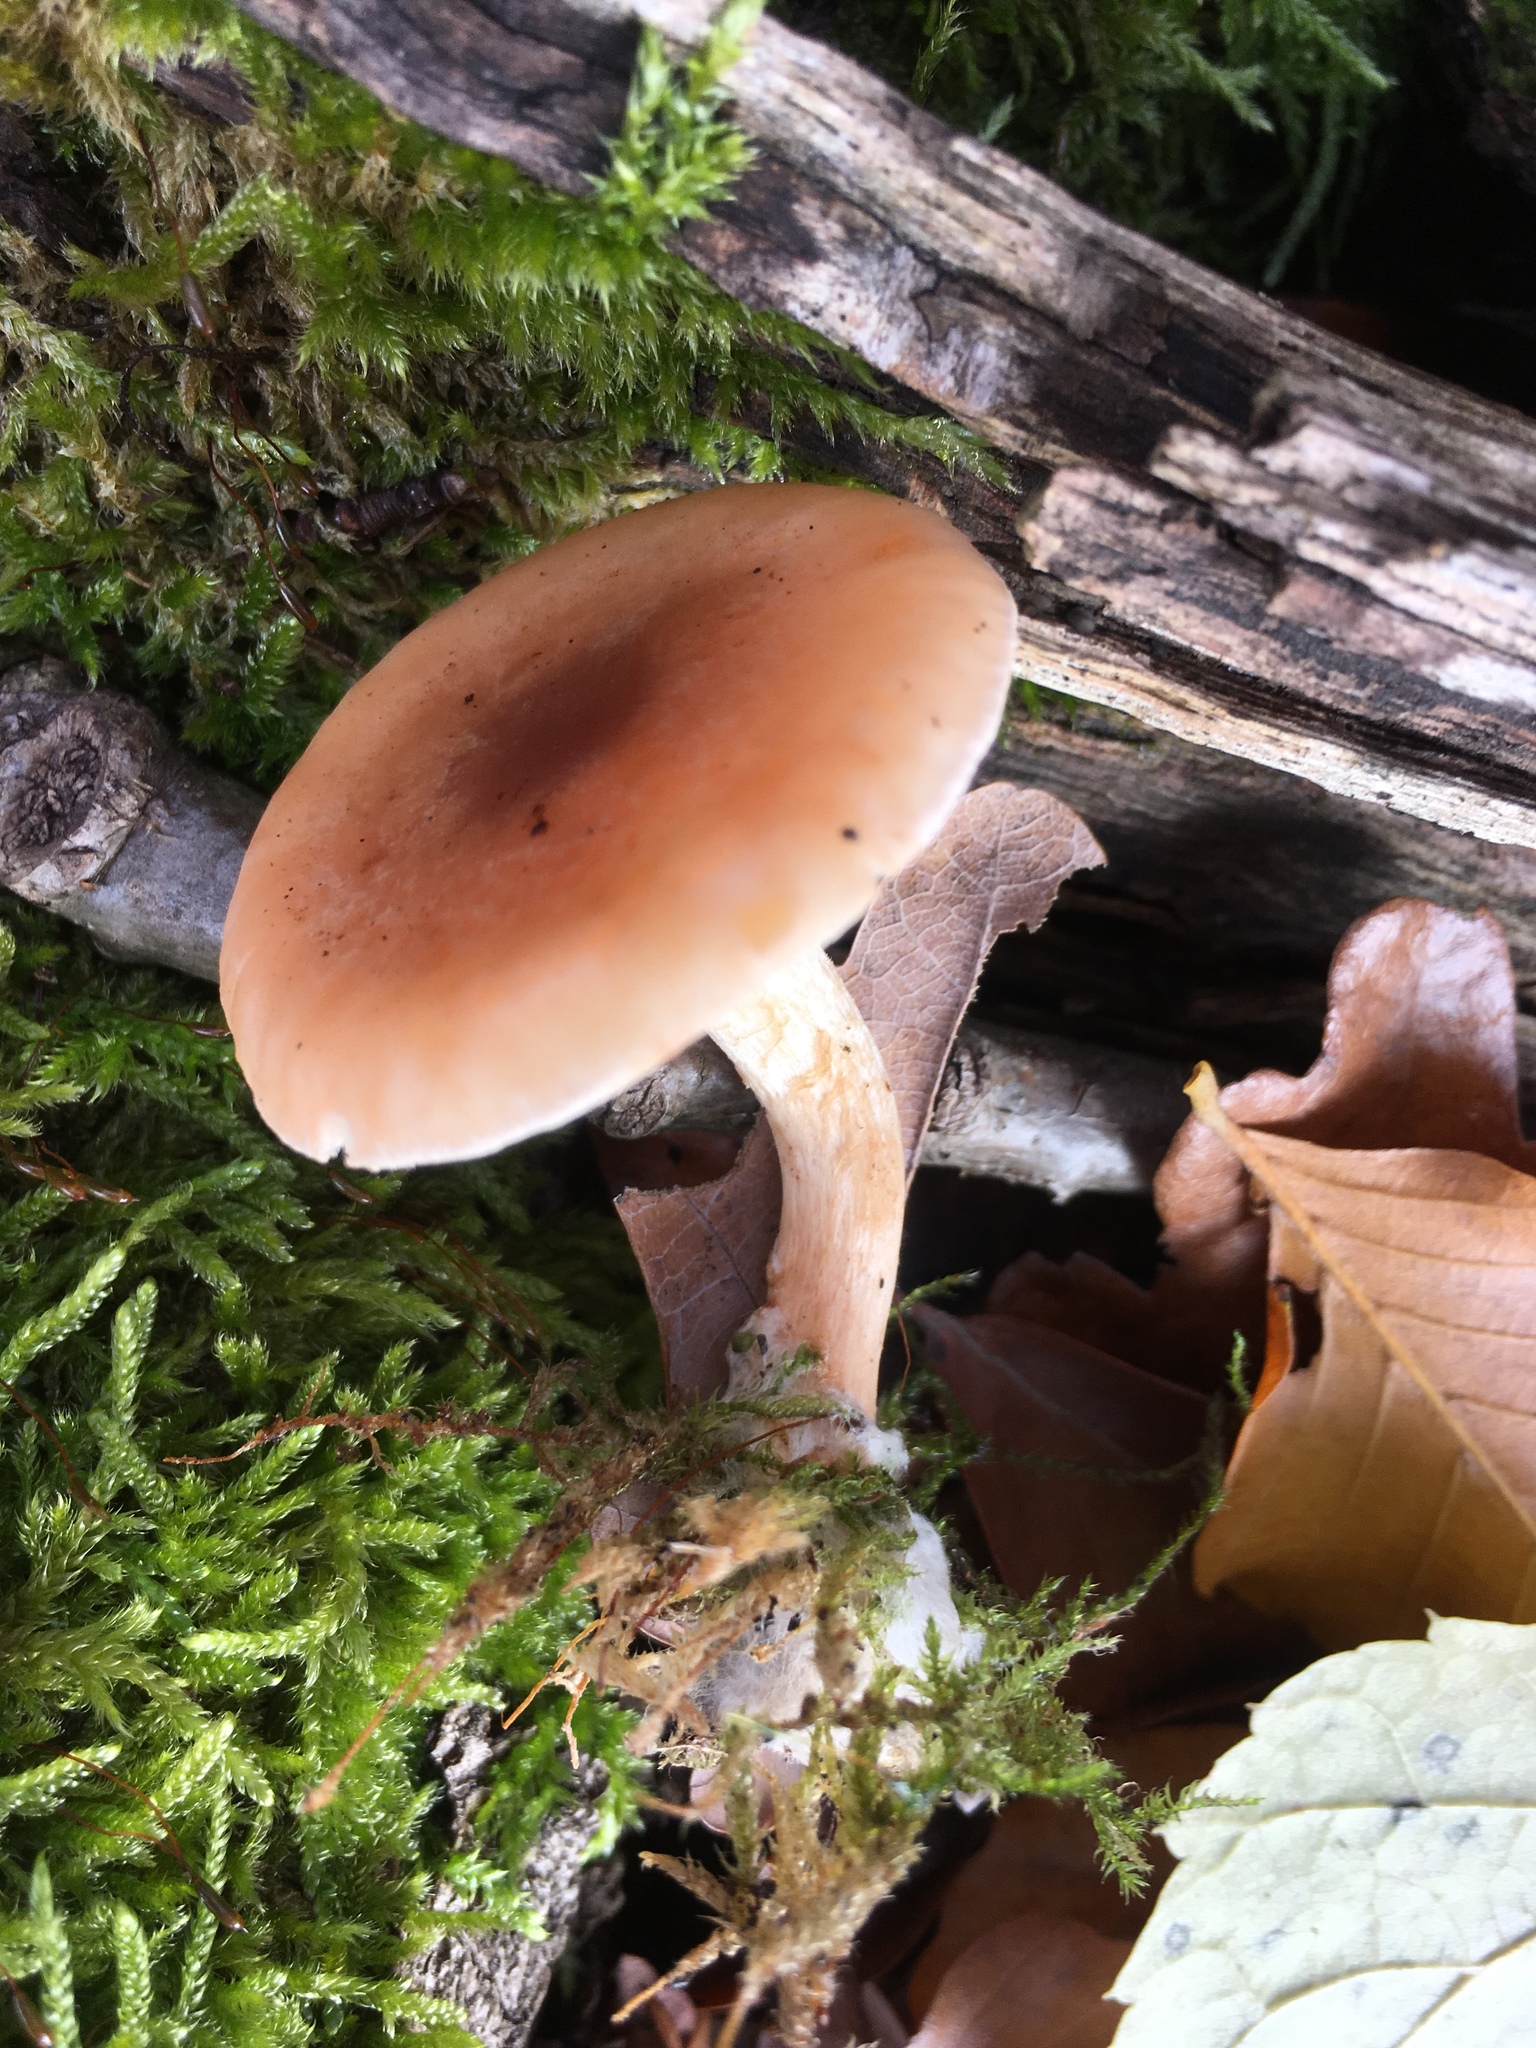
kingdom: Fungi
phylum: Basidiomycota
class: Agaricomycetes
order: Agaricales
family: Tricholomataceae
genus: Clitocybe
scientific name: Clitocybe fragrans
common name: Fragrant funnel
